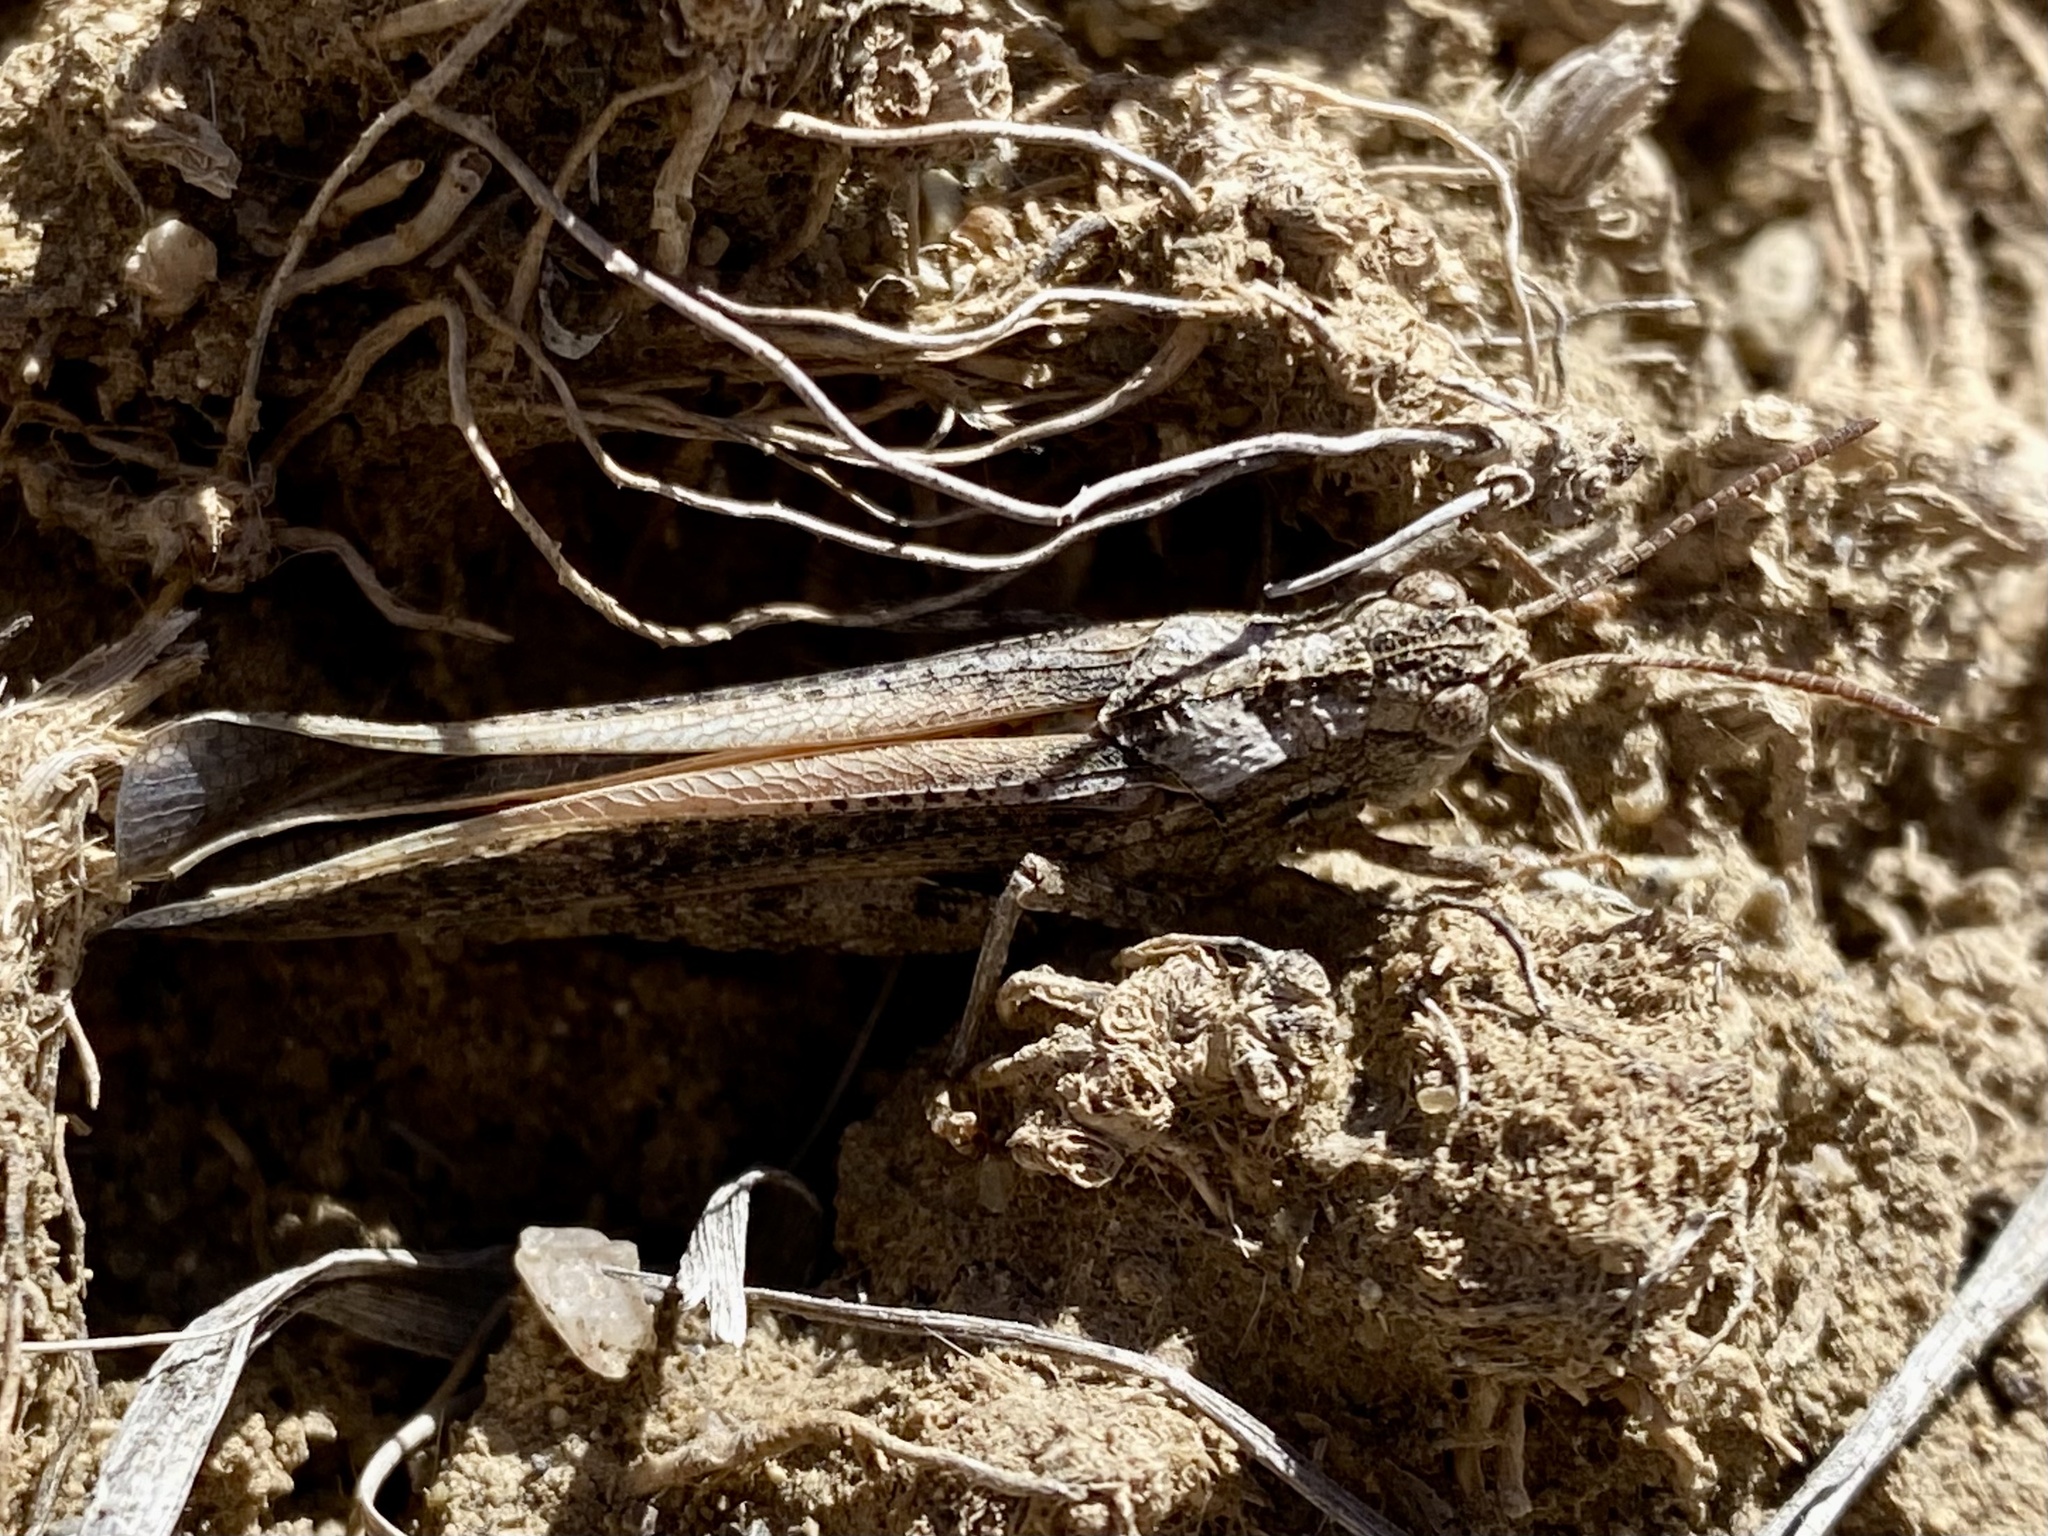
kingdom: Animalia
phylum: Arthropoda
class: Insecta
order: Orthoptera
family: Acrididae
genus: Arphia
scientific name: Arphia conspersa
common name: Speckle-winged rangeland grasshopper
